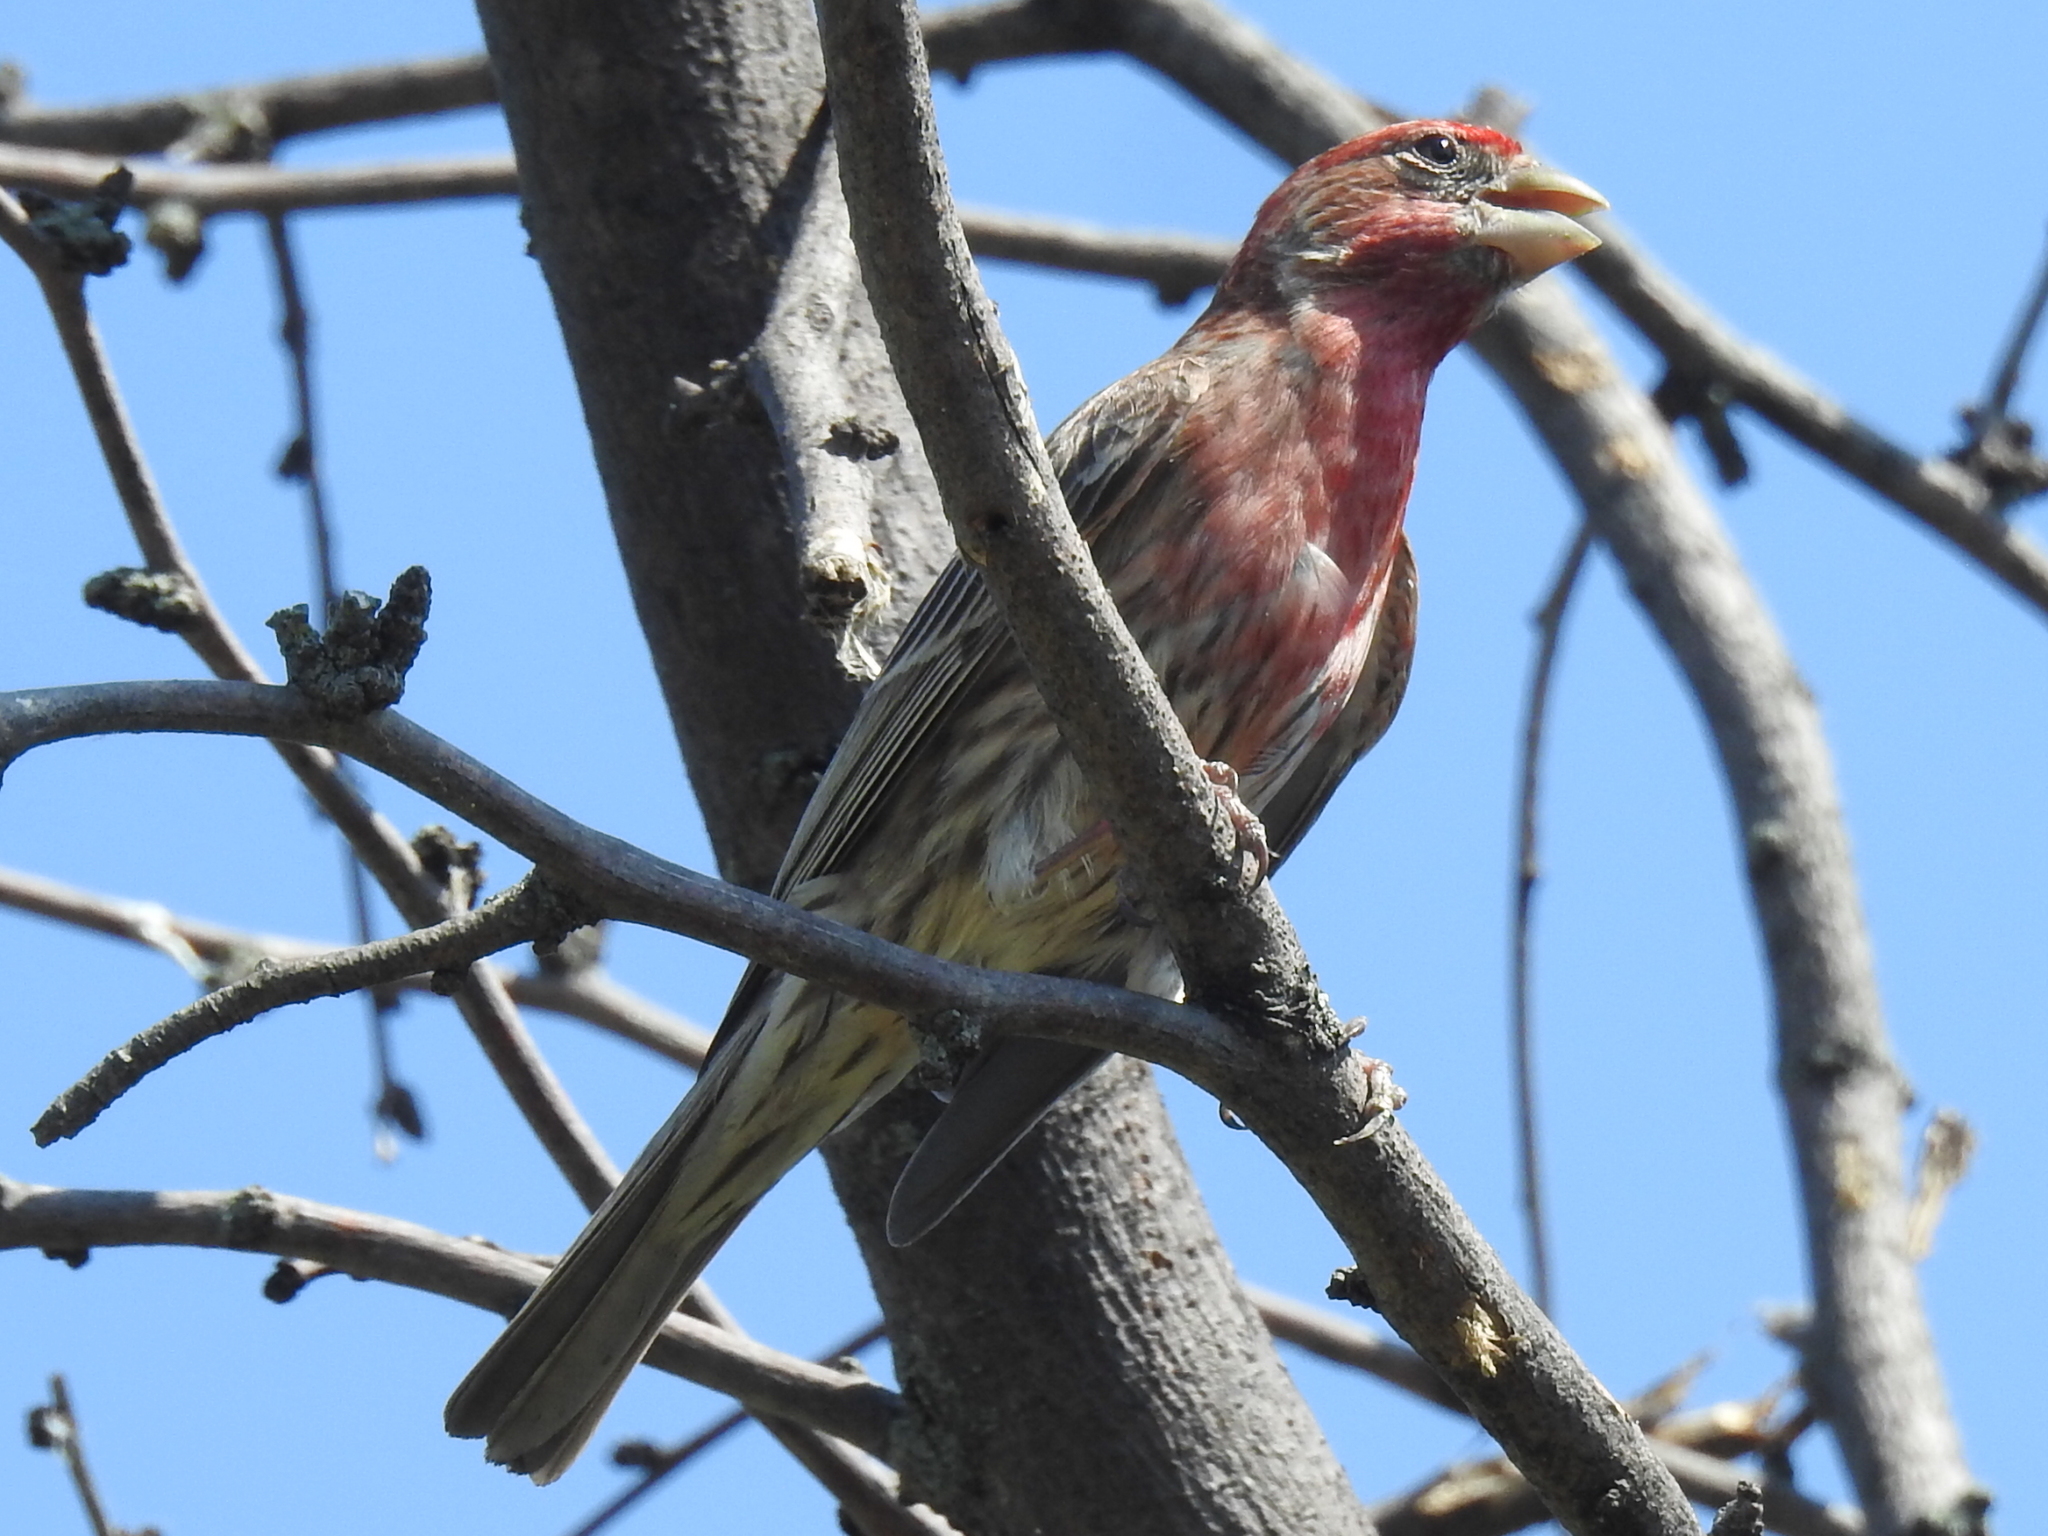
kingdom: Animalia
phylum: Chordata
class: Aves
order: Passeriformes
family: Fringillidae
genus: Haemorhous
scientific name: Haemorhous mexicanus
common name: House finch
